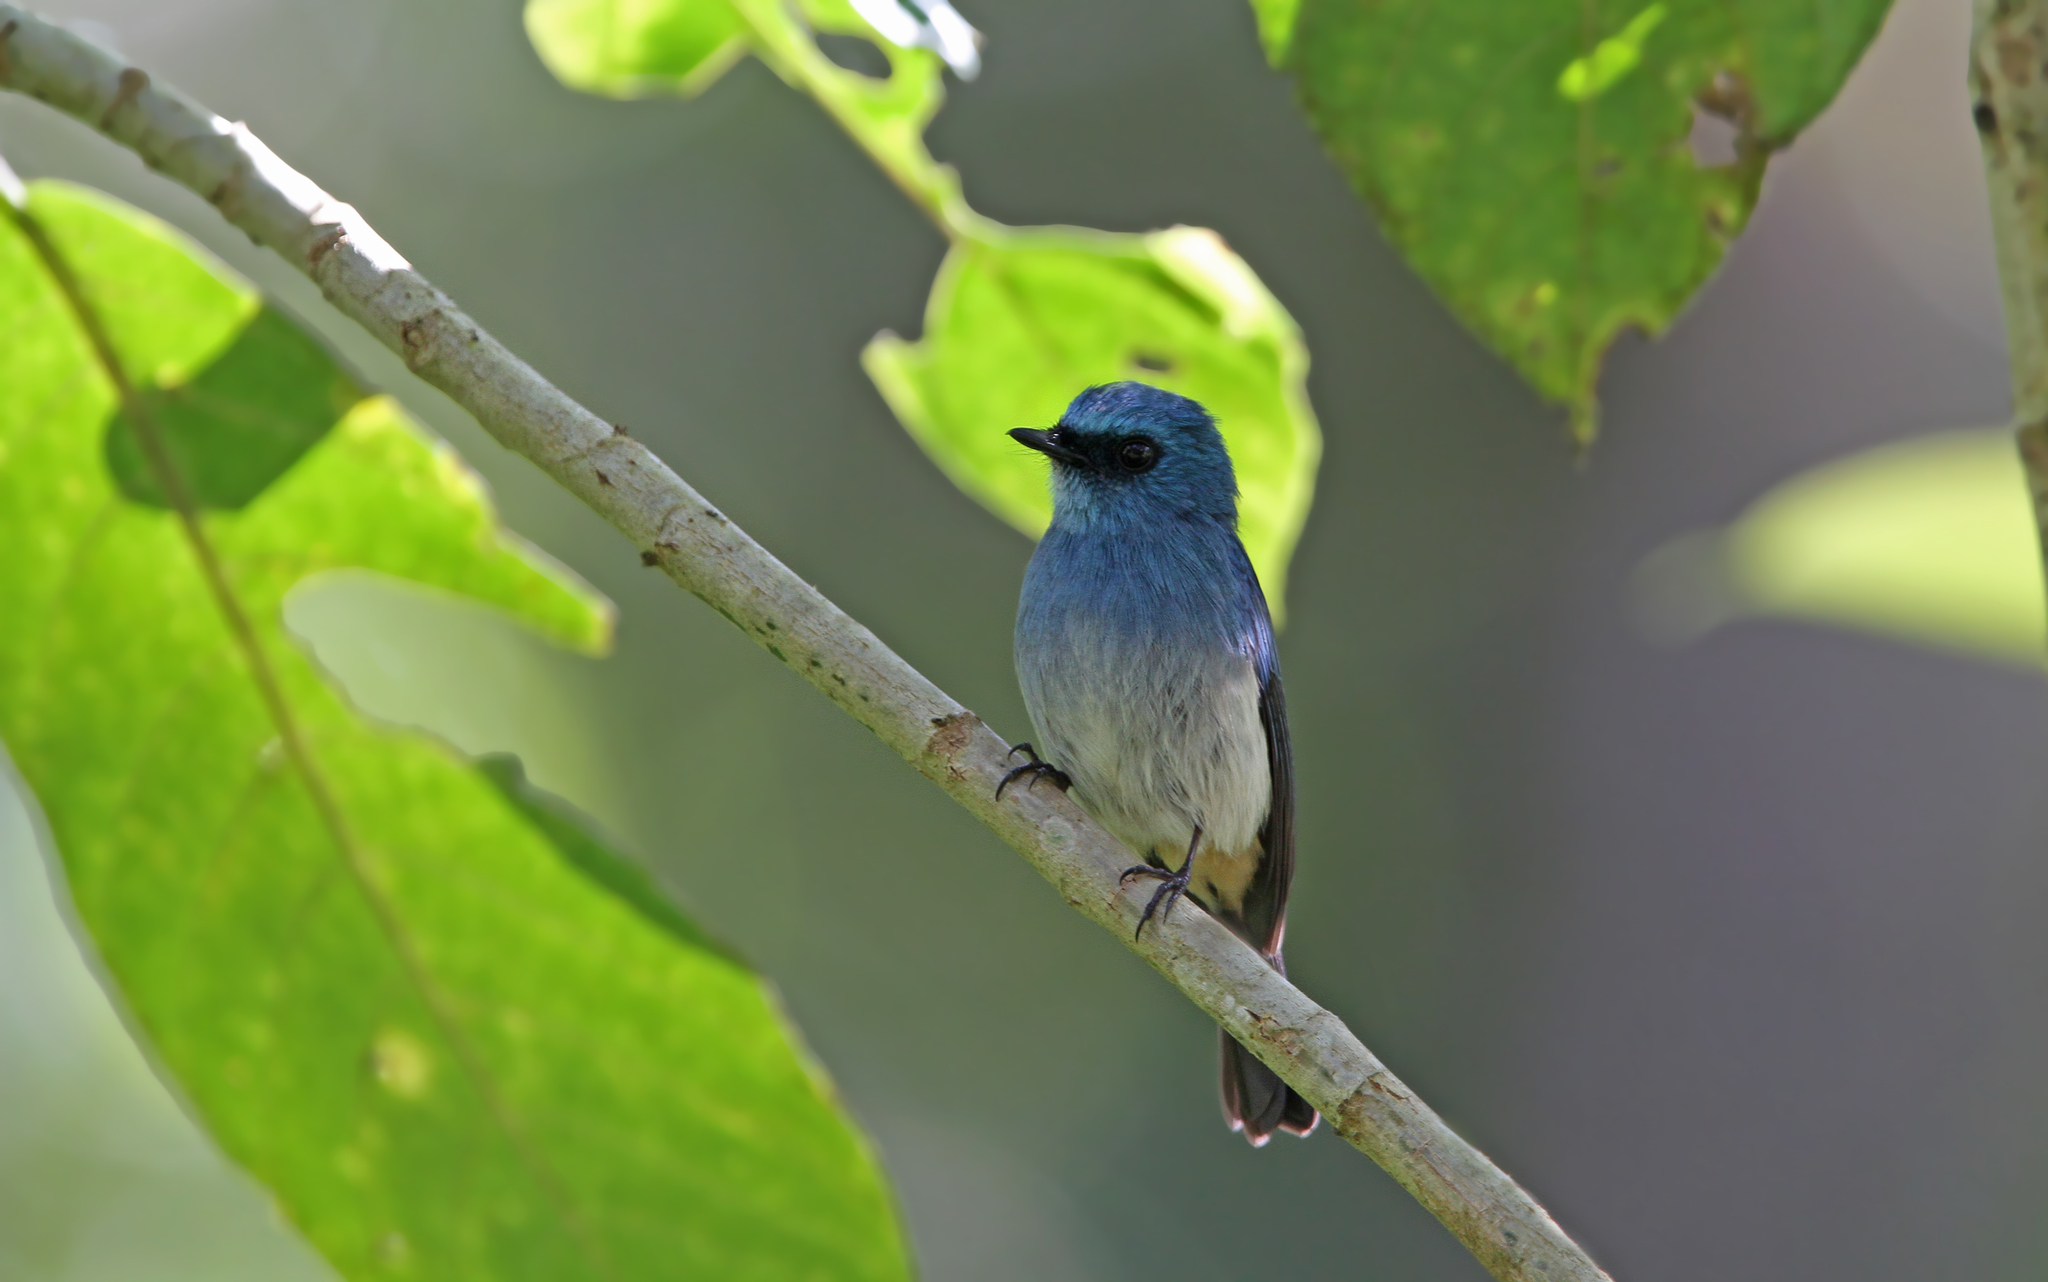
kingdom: Animalia
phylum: Chordata
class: Aves
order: Passeriformes
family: Muscicapidae
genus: Eumyias
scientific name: Eumyias indigo
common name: Indigo flycatcher
